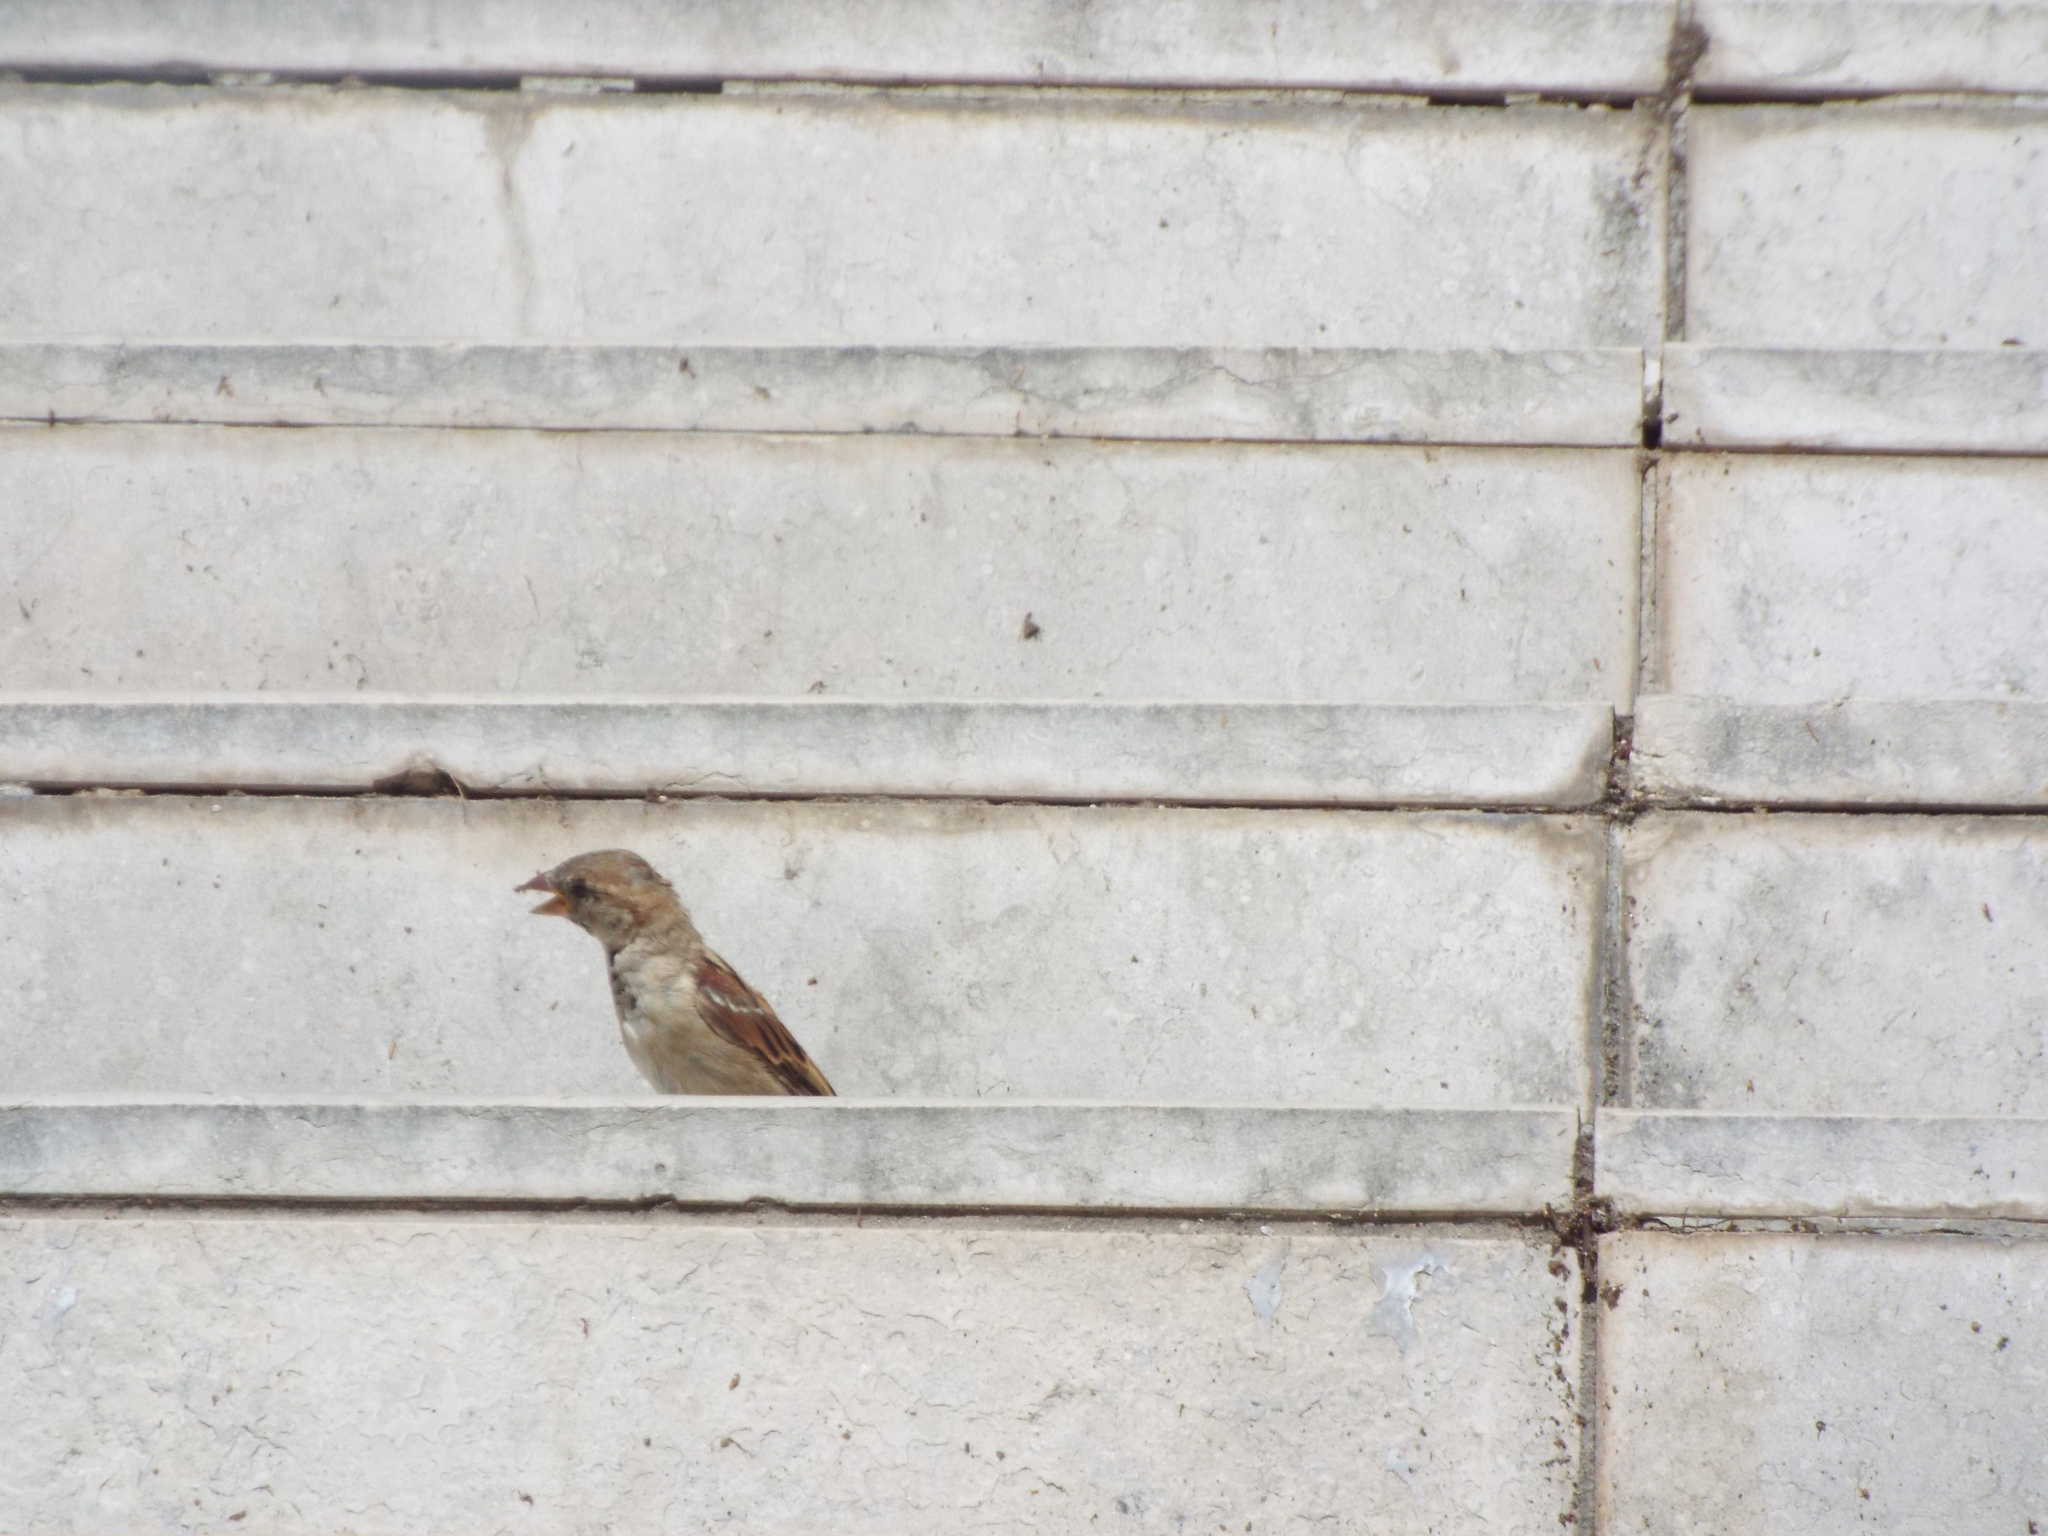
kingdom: Animalia
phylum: Chordata
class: Aves
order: Passeriformes
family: Passeridae
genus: Passer
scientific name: Passer domesticus
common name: House sparrow
